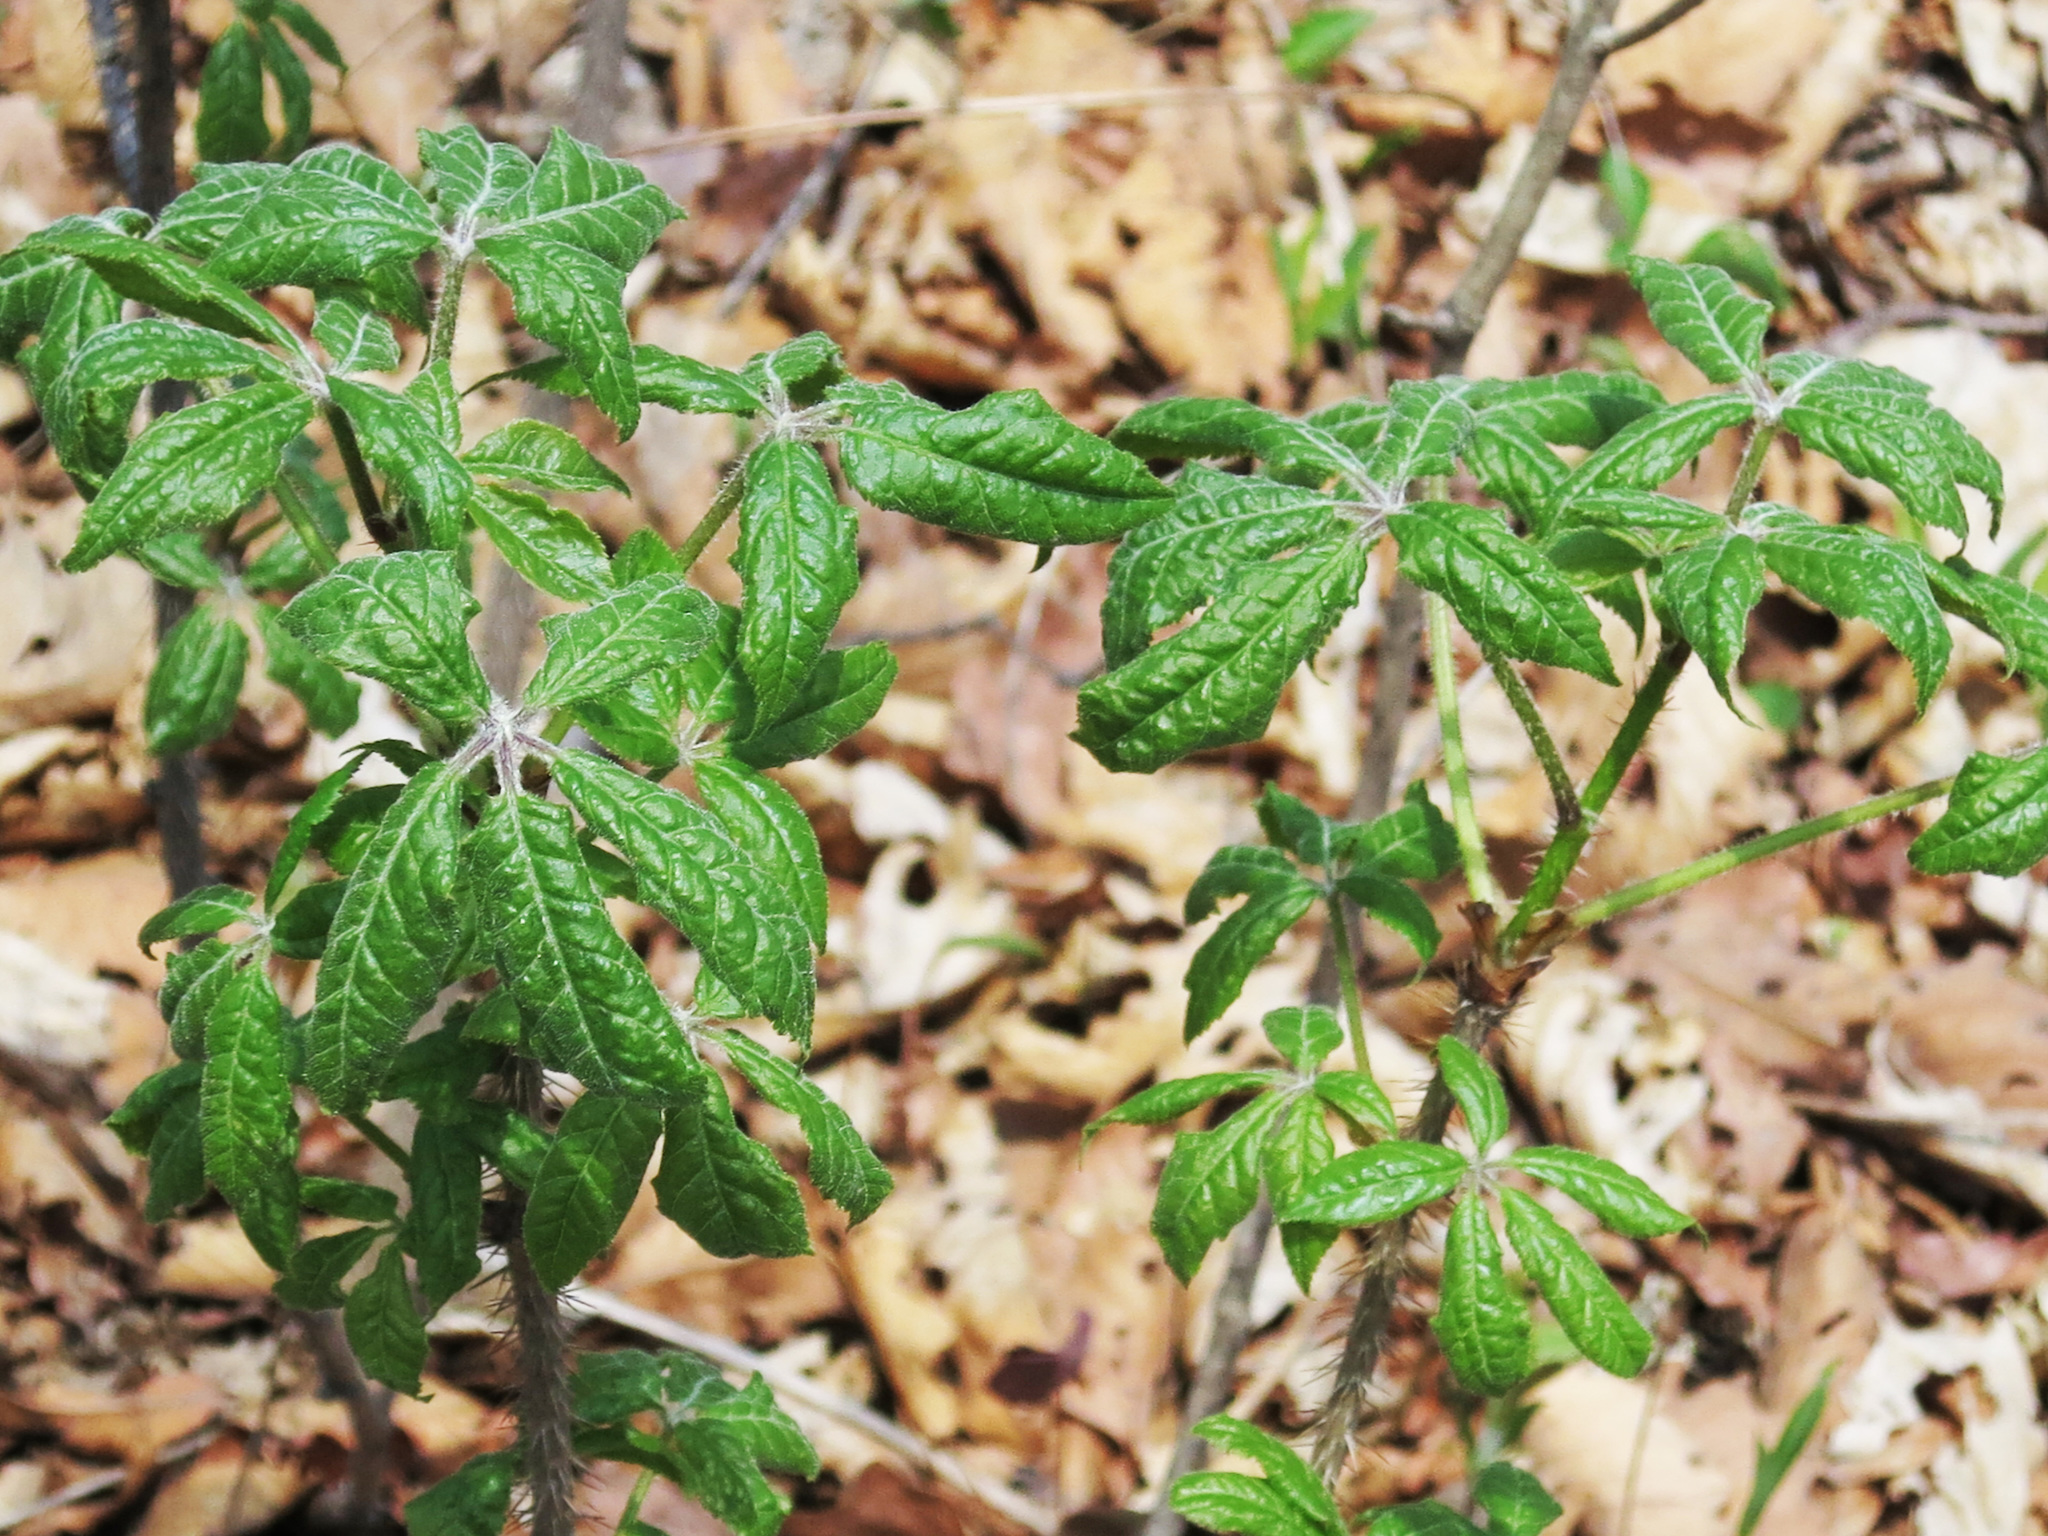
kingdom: Plantae
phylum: Tracheophyta
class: Magnoliopsida
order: Apiales
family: Araliaceae
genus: Eleutherococcus
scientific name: Eleutherococcus sessiliflorus
